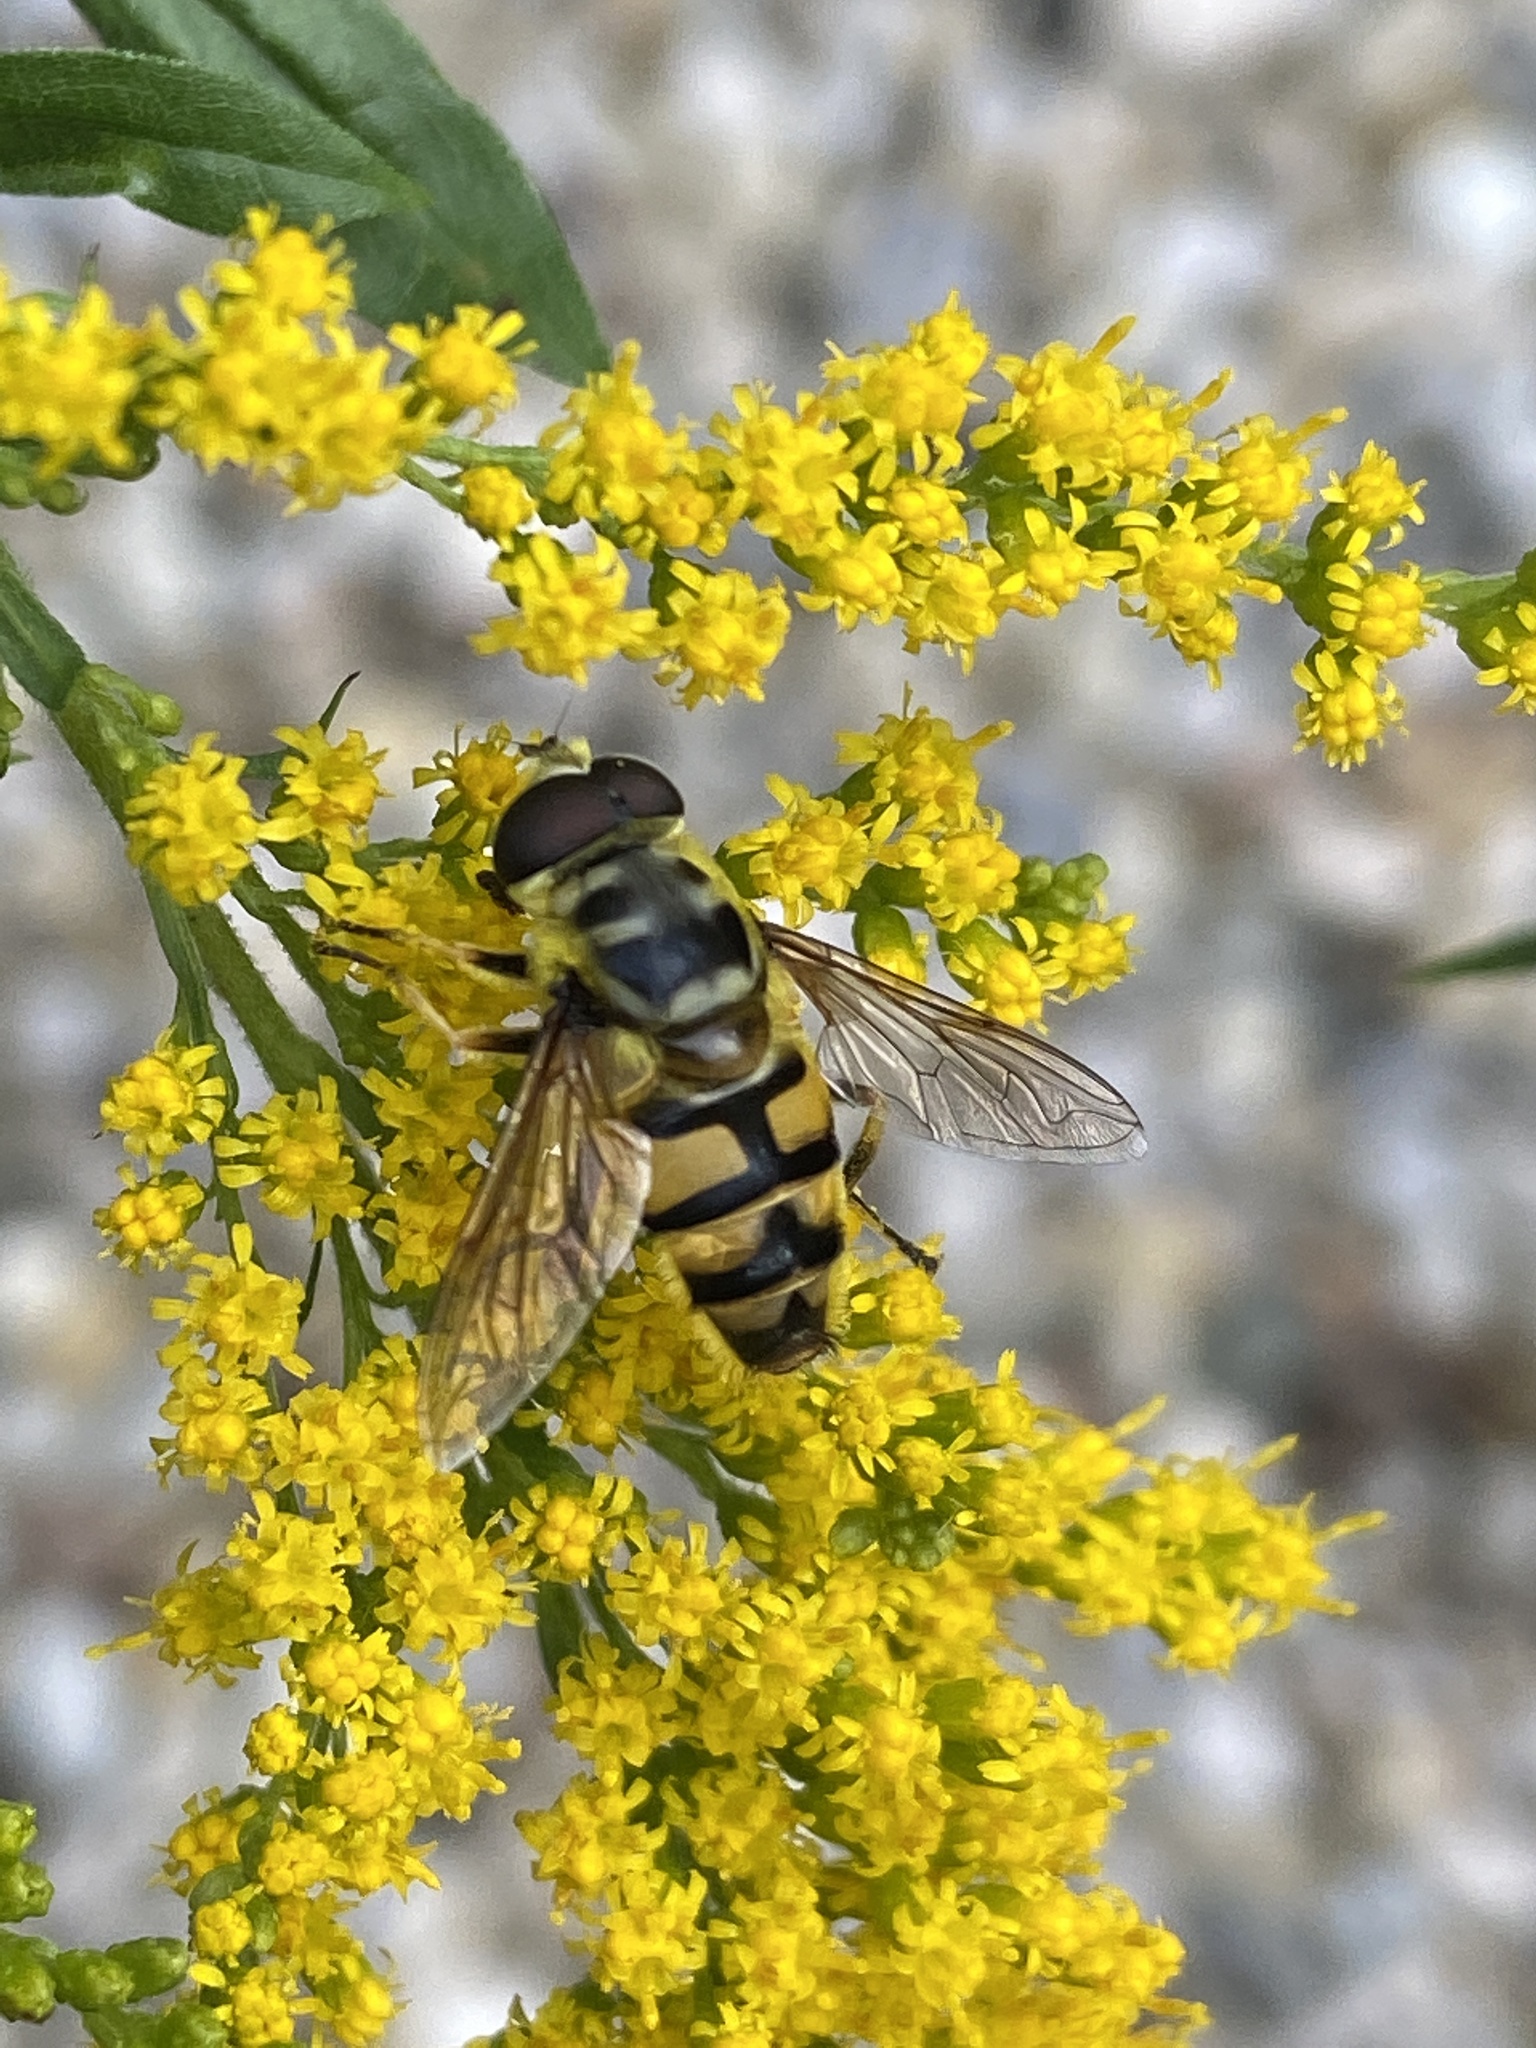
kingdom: Animalia
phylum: Arthropoda
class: Insecta
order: Diptera
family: Syrphidae
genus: Myathropa
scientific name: Myathropa florea
